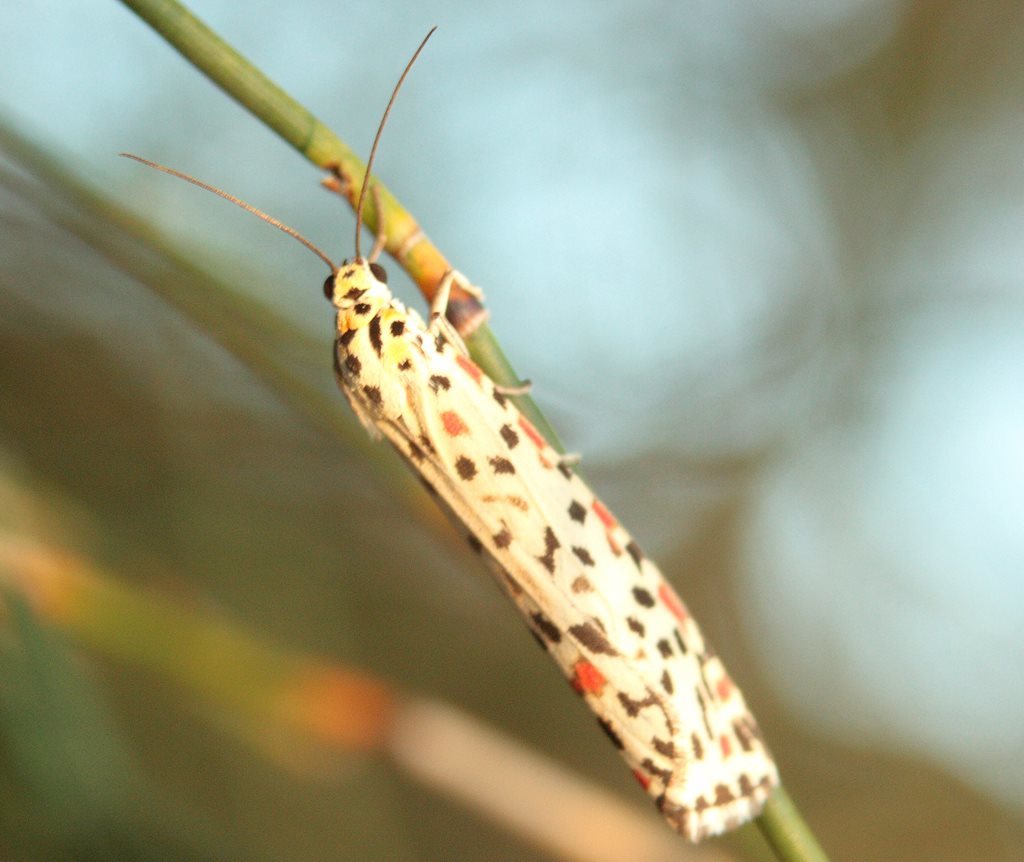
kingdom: Animalia
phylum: Arthropoda
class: Insecta
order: Lepidoptera
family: Erebidae
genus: Utetheisa
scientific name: Utetheisa lotrix
